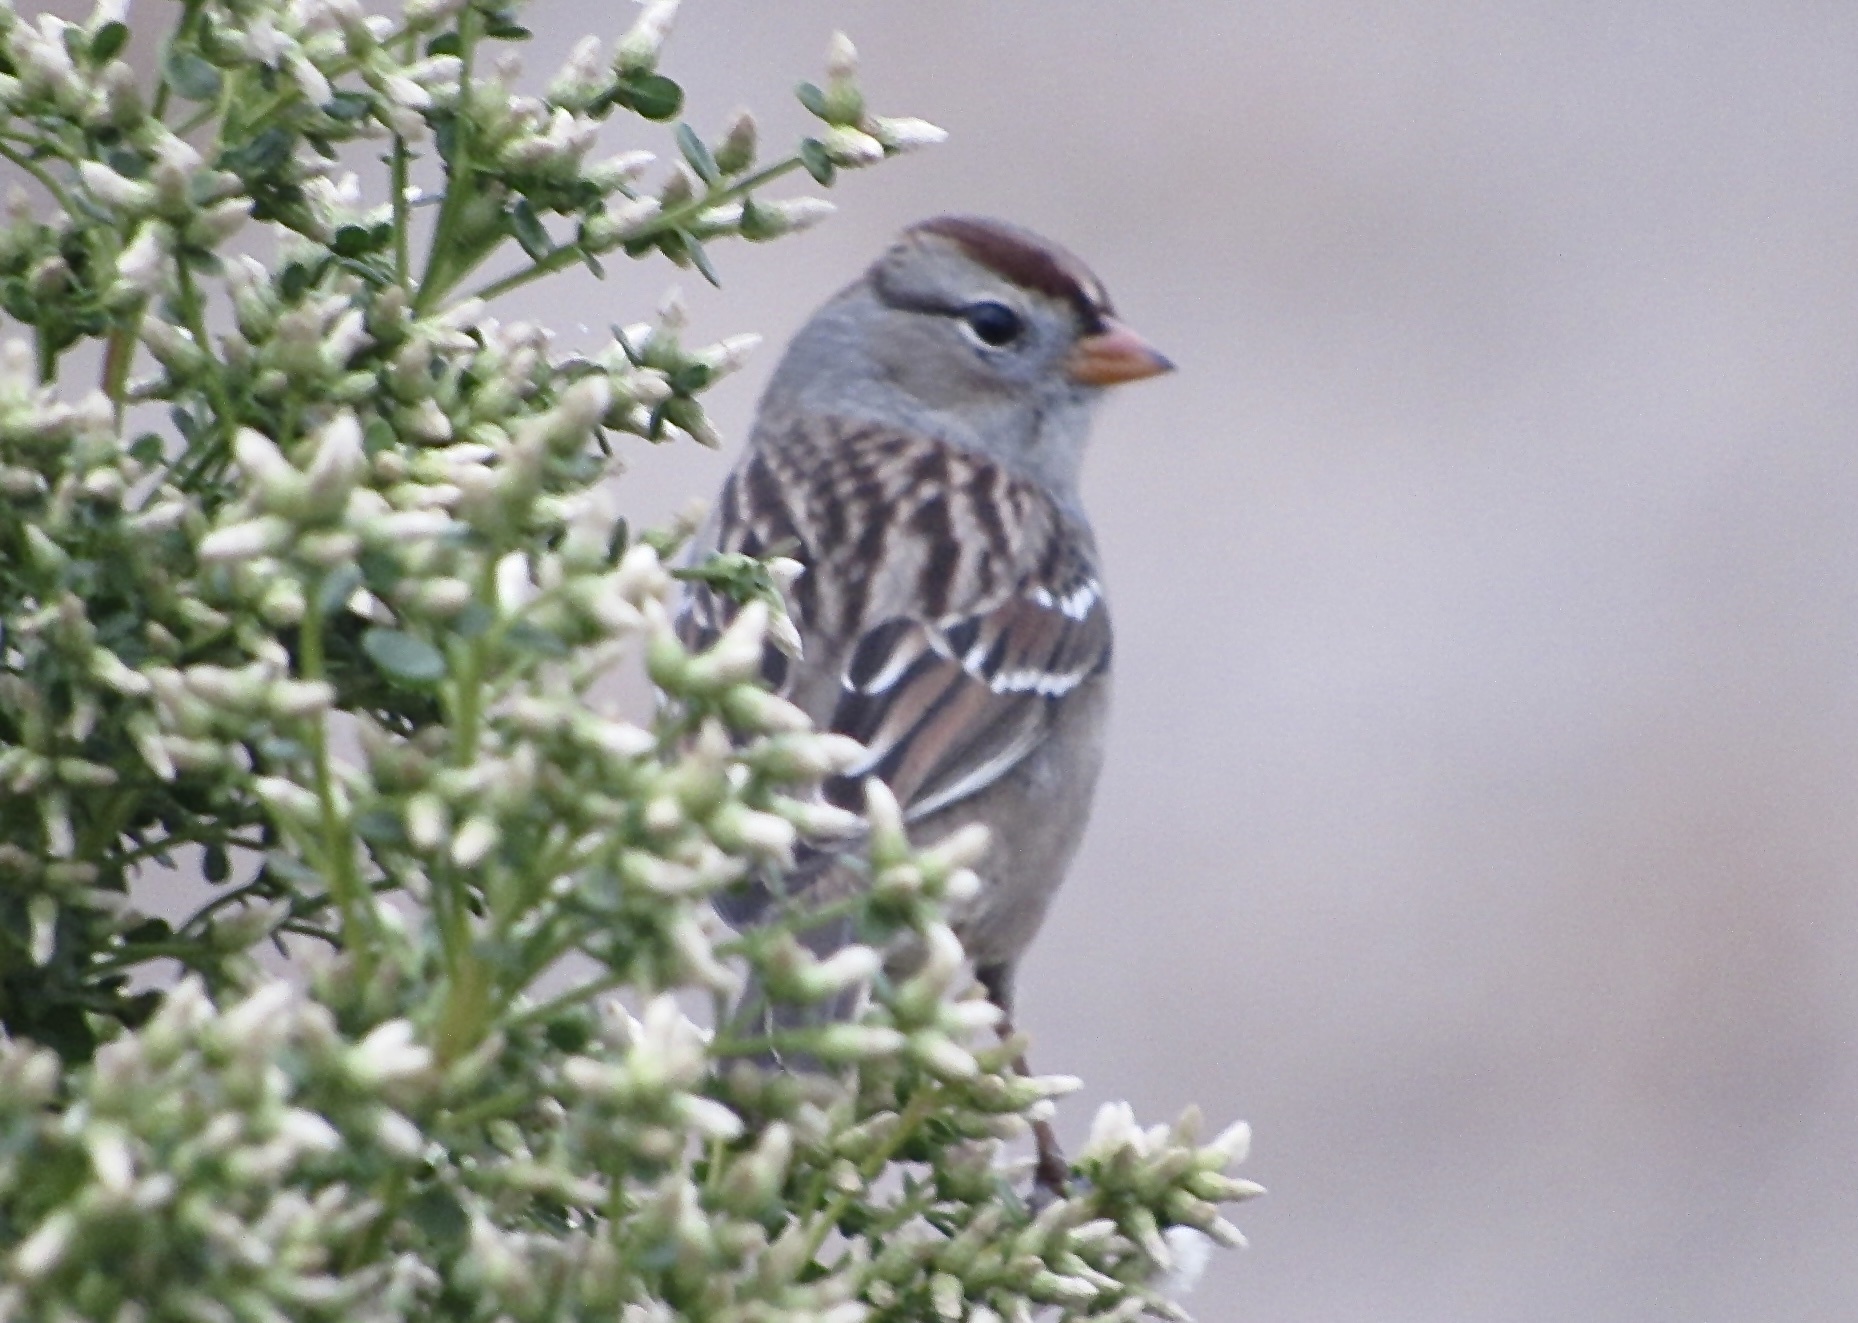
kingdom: Animalia
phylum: Chordata
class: Aves
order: Passeriformes
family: Passerellidae
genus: Zonotrichia
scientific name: Zonotrichia leucophrys
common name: White-crowned sparrow
